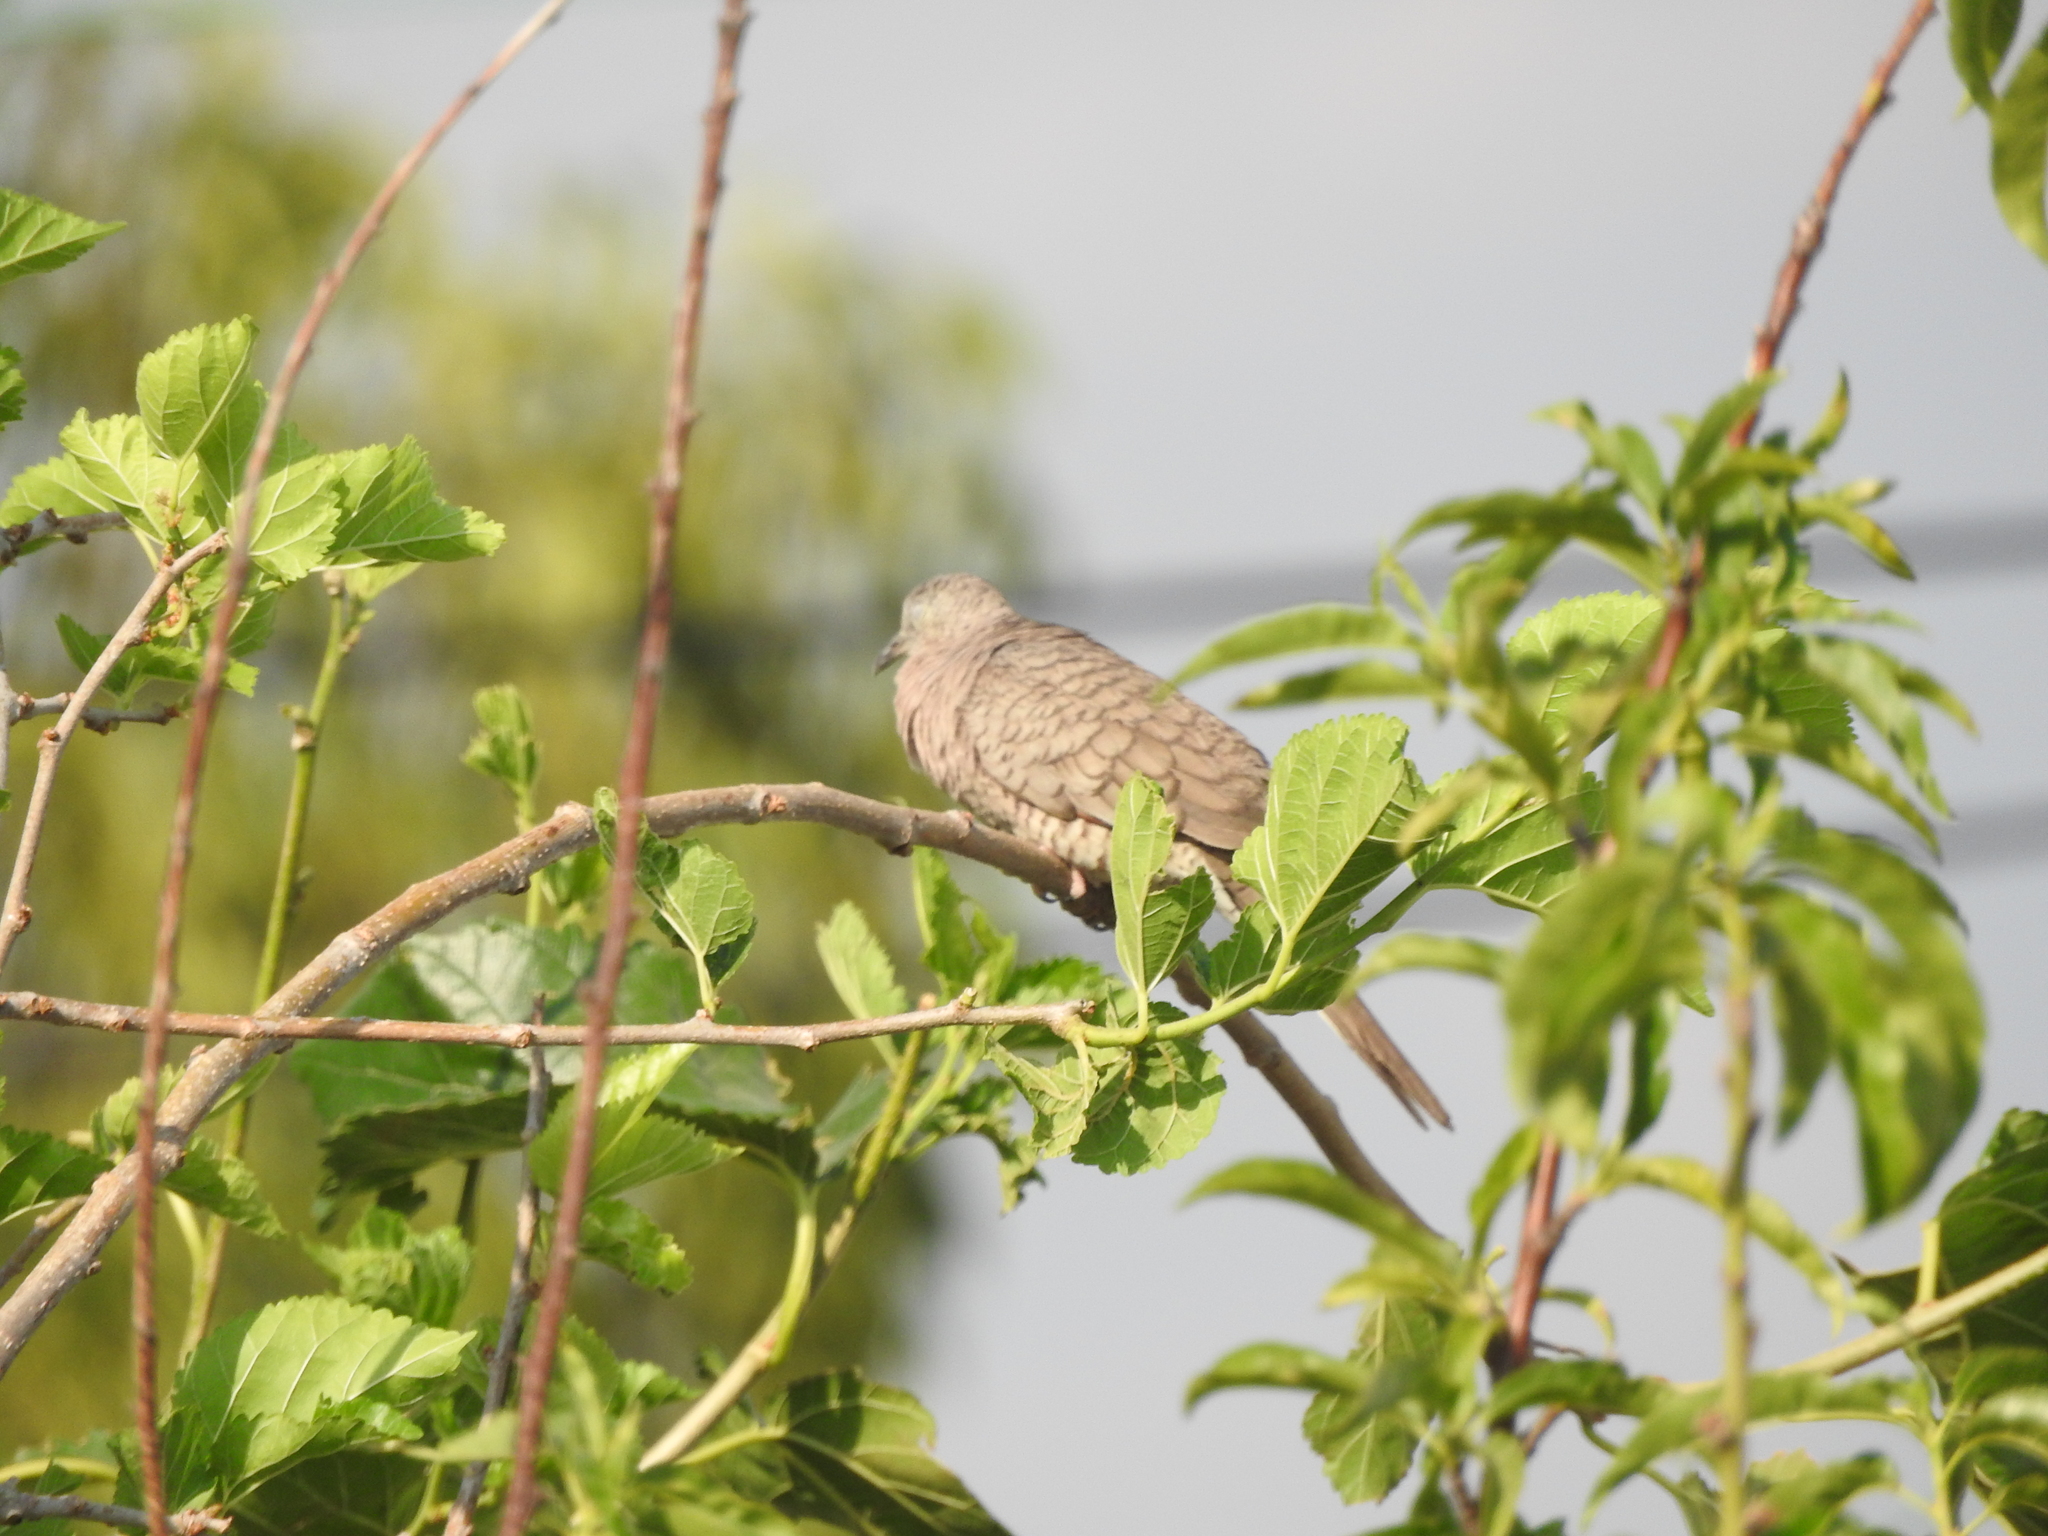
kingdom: Animalia
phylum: Chordata
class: Aves
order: Columbiformes
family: Columbidae
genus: Columbina
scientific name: Columbina inca
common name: Inca dove
